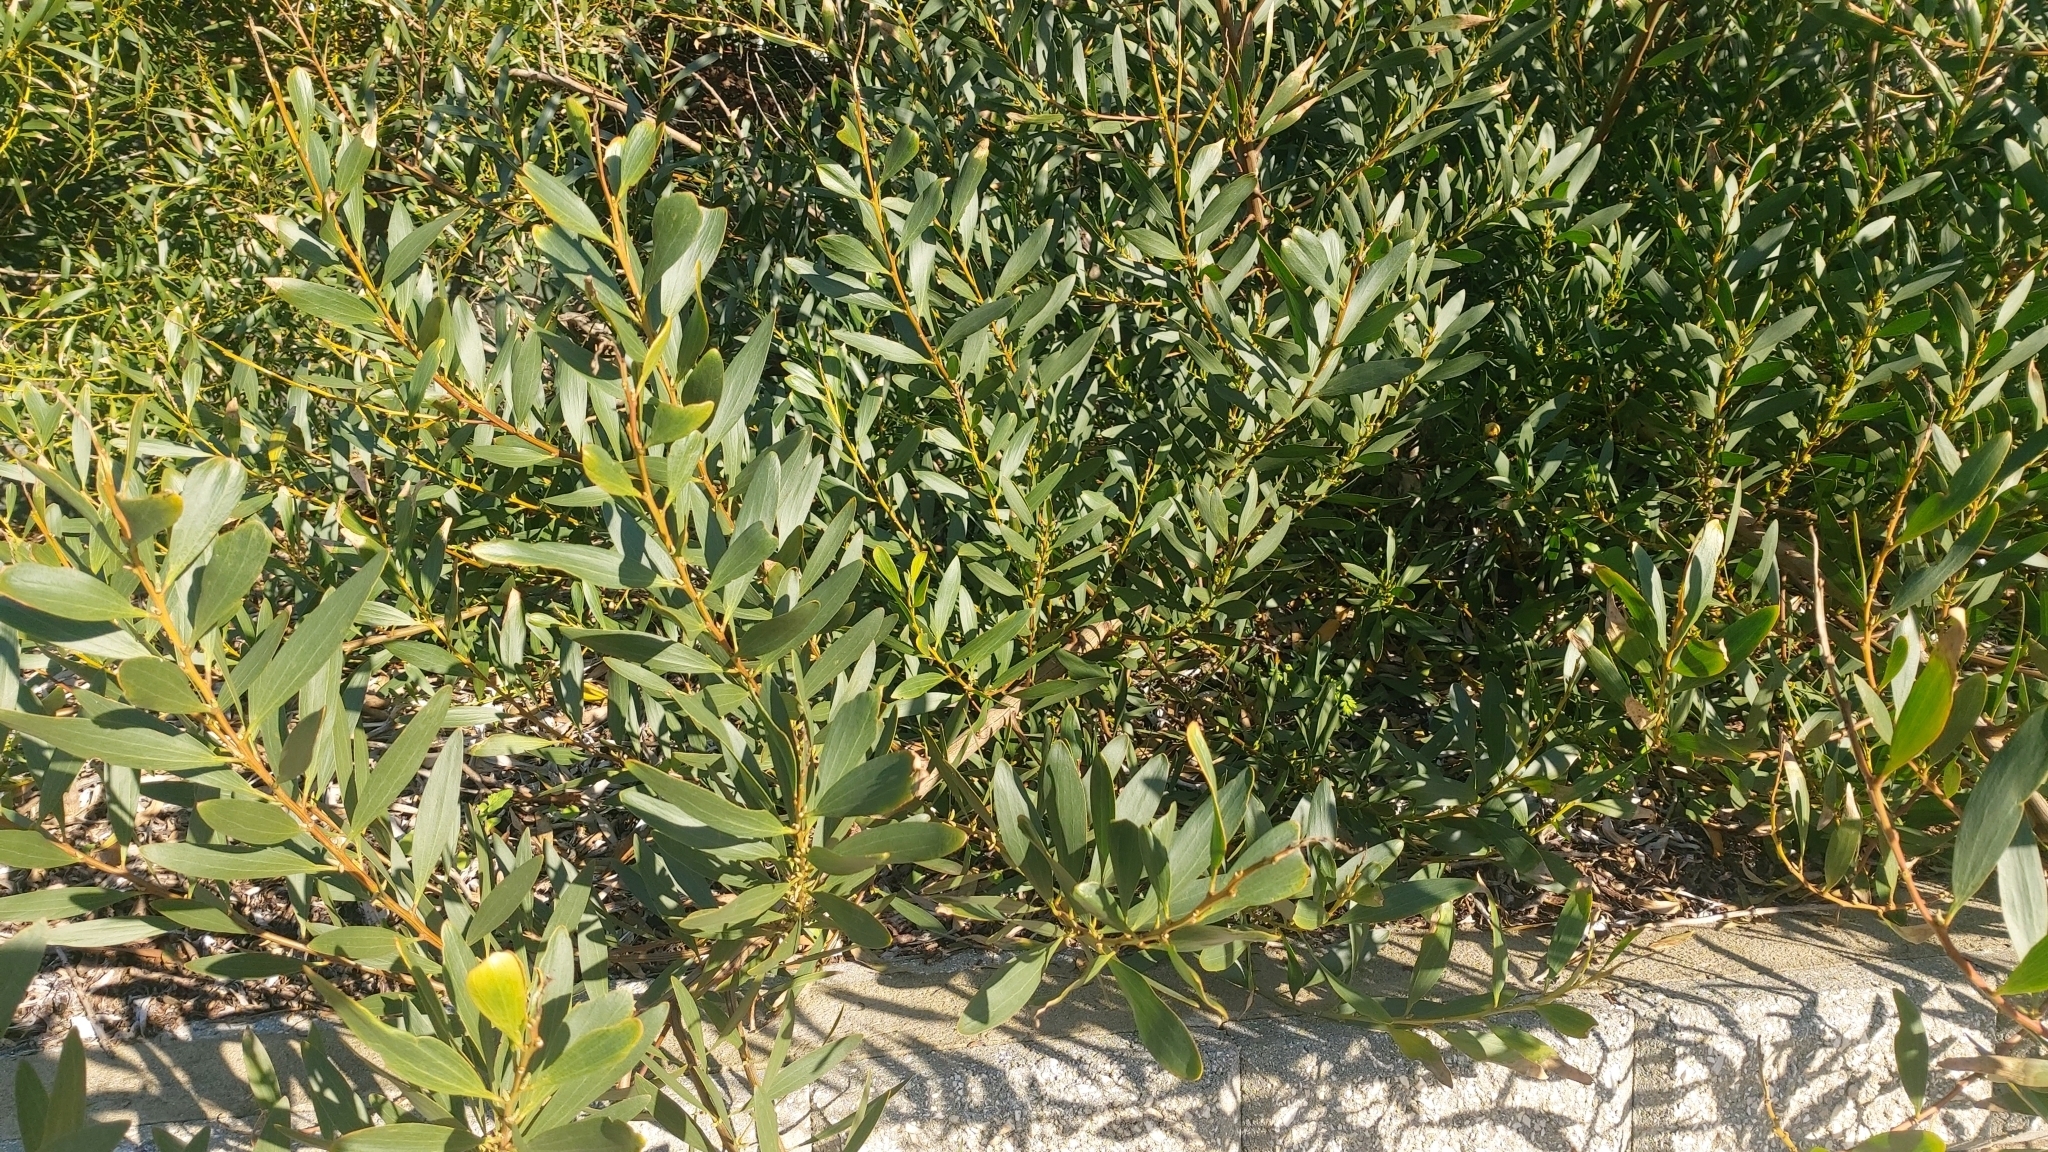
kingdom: Plantae
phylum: Tracheophyta
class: Magnoliopsida
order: Fabales
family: Fabaceae
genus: Acacia
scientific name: Acacia longifolia
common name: Sydney golden wattle
